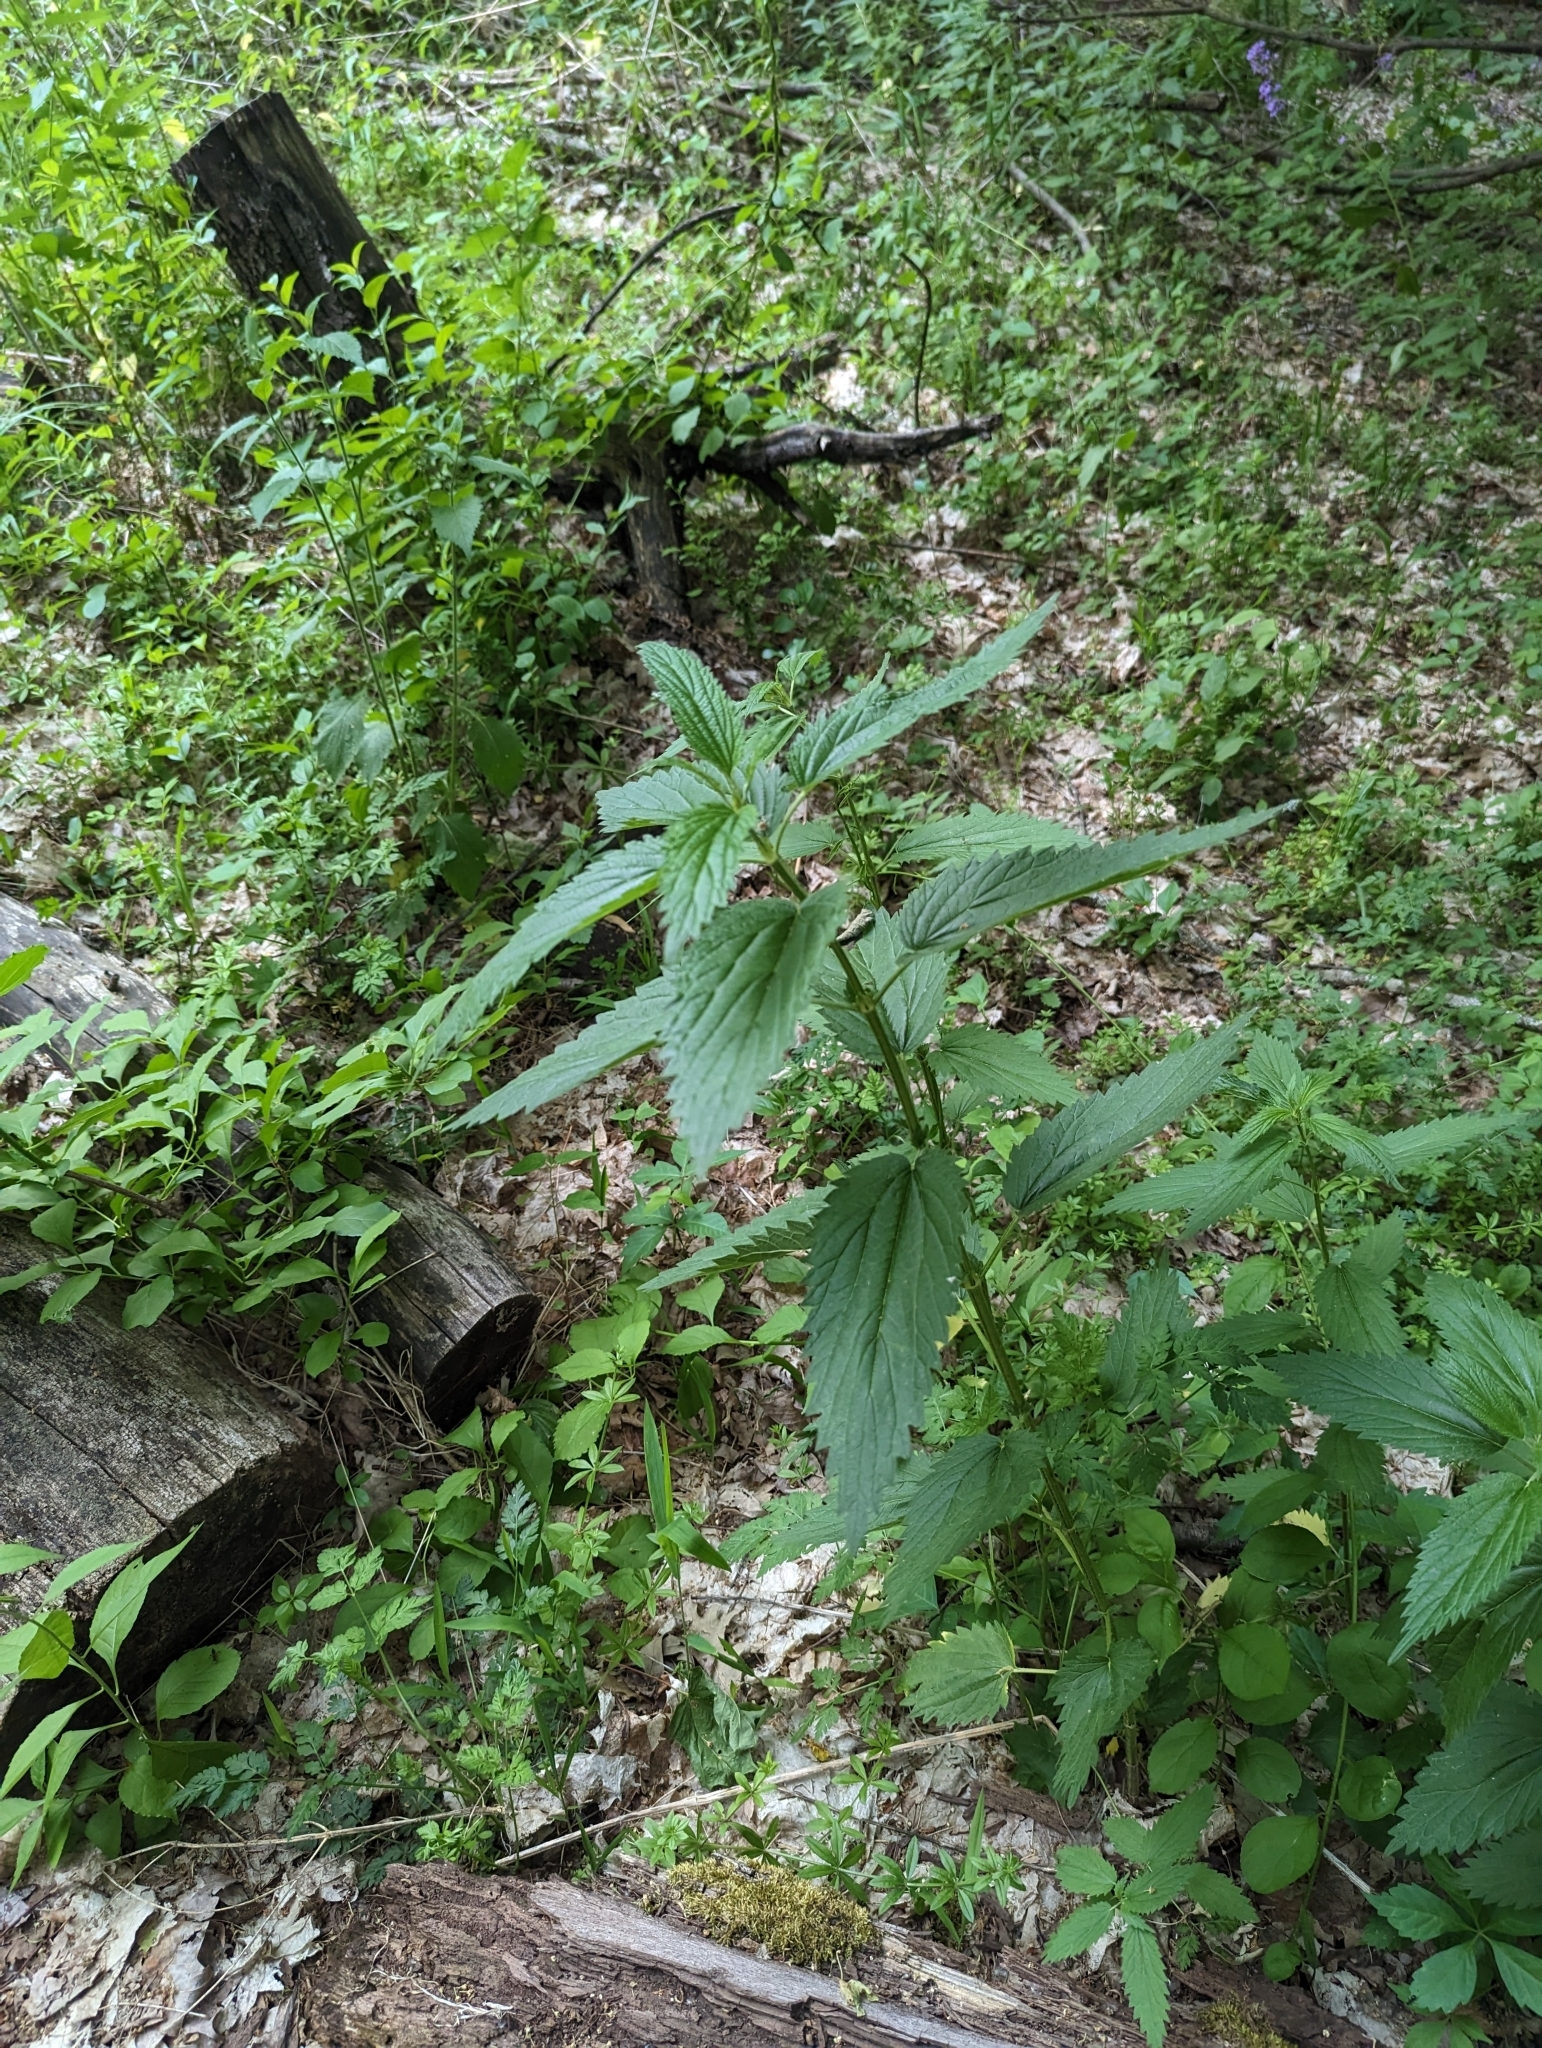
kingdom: Plantae
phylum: Tracheophyta
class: Magnoliopsida
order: Rosales
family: Urticaceae
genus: Urtica
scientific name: Urtica dioica
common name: Common nettle
